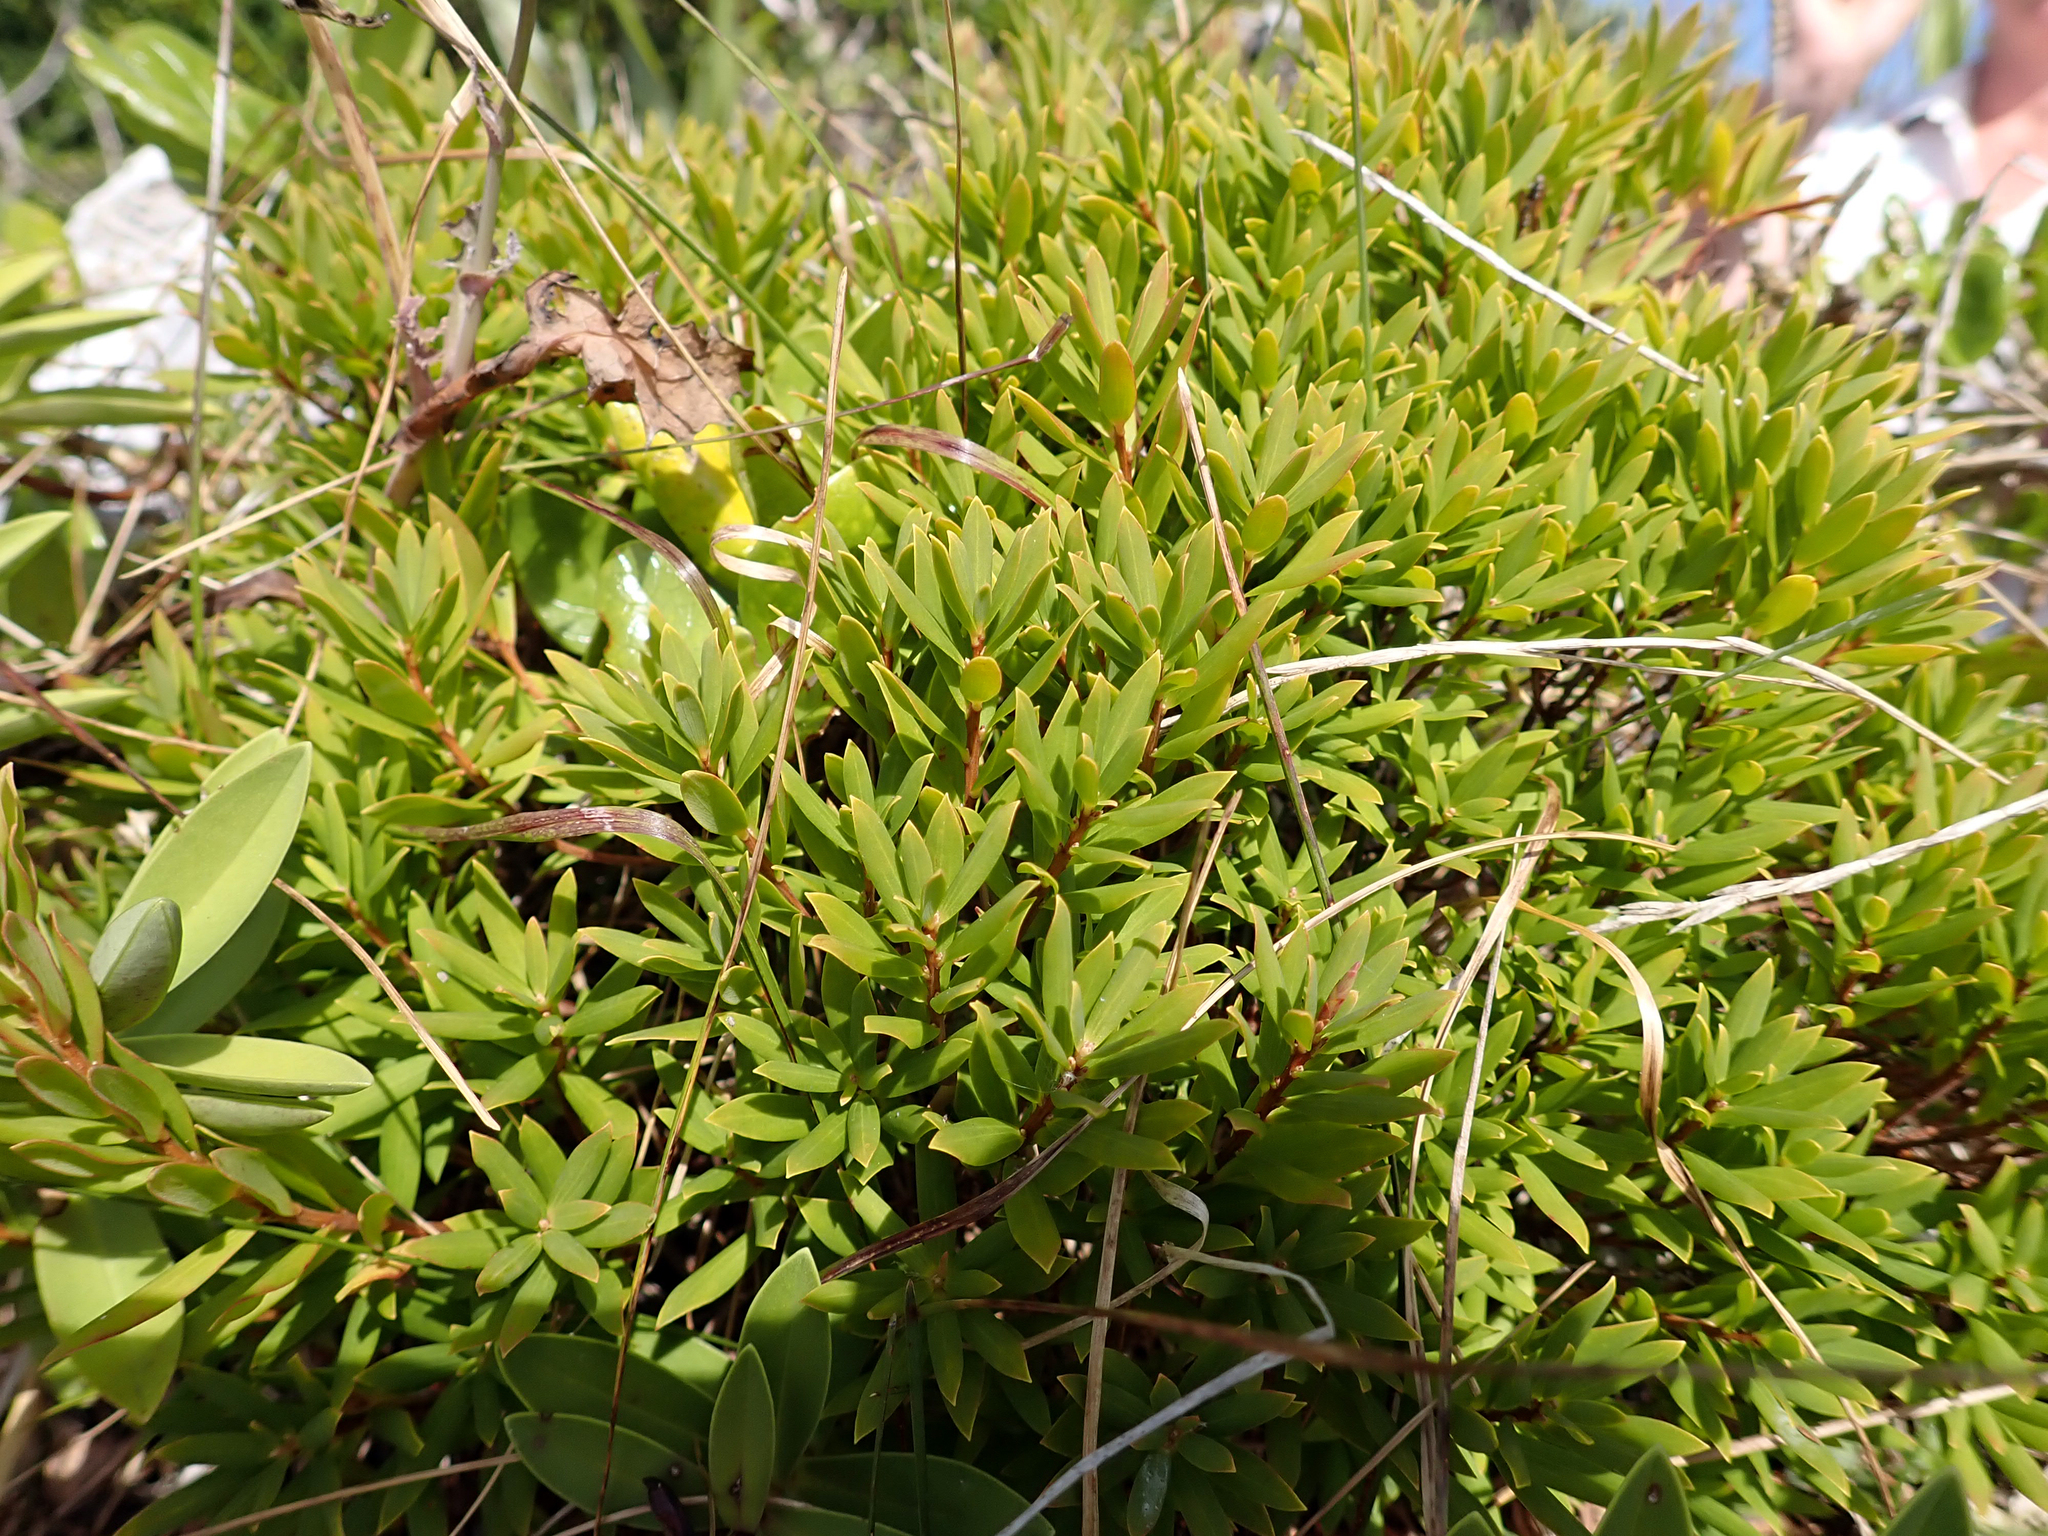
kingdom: Plantae
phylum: Tracheophyta
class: Magnoliopsida
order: Ericales
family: Ericaceae
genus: Leptecophylla
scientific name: Leptecophylla parvifolia
